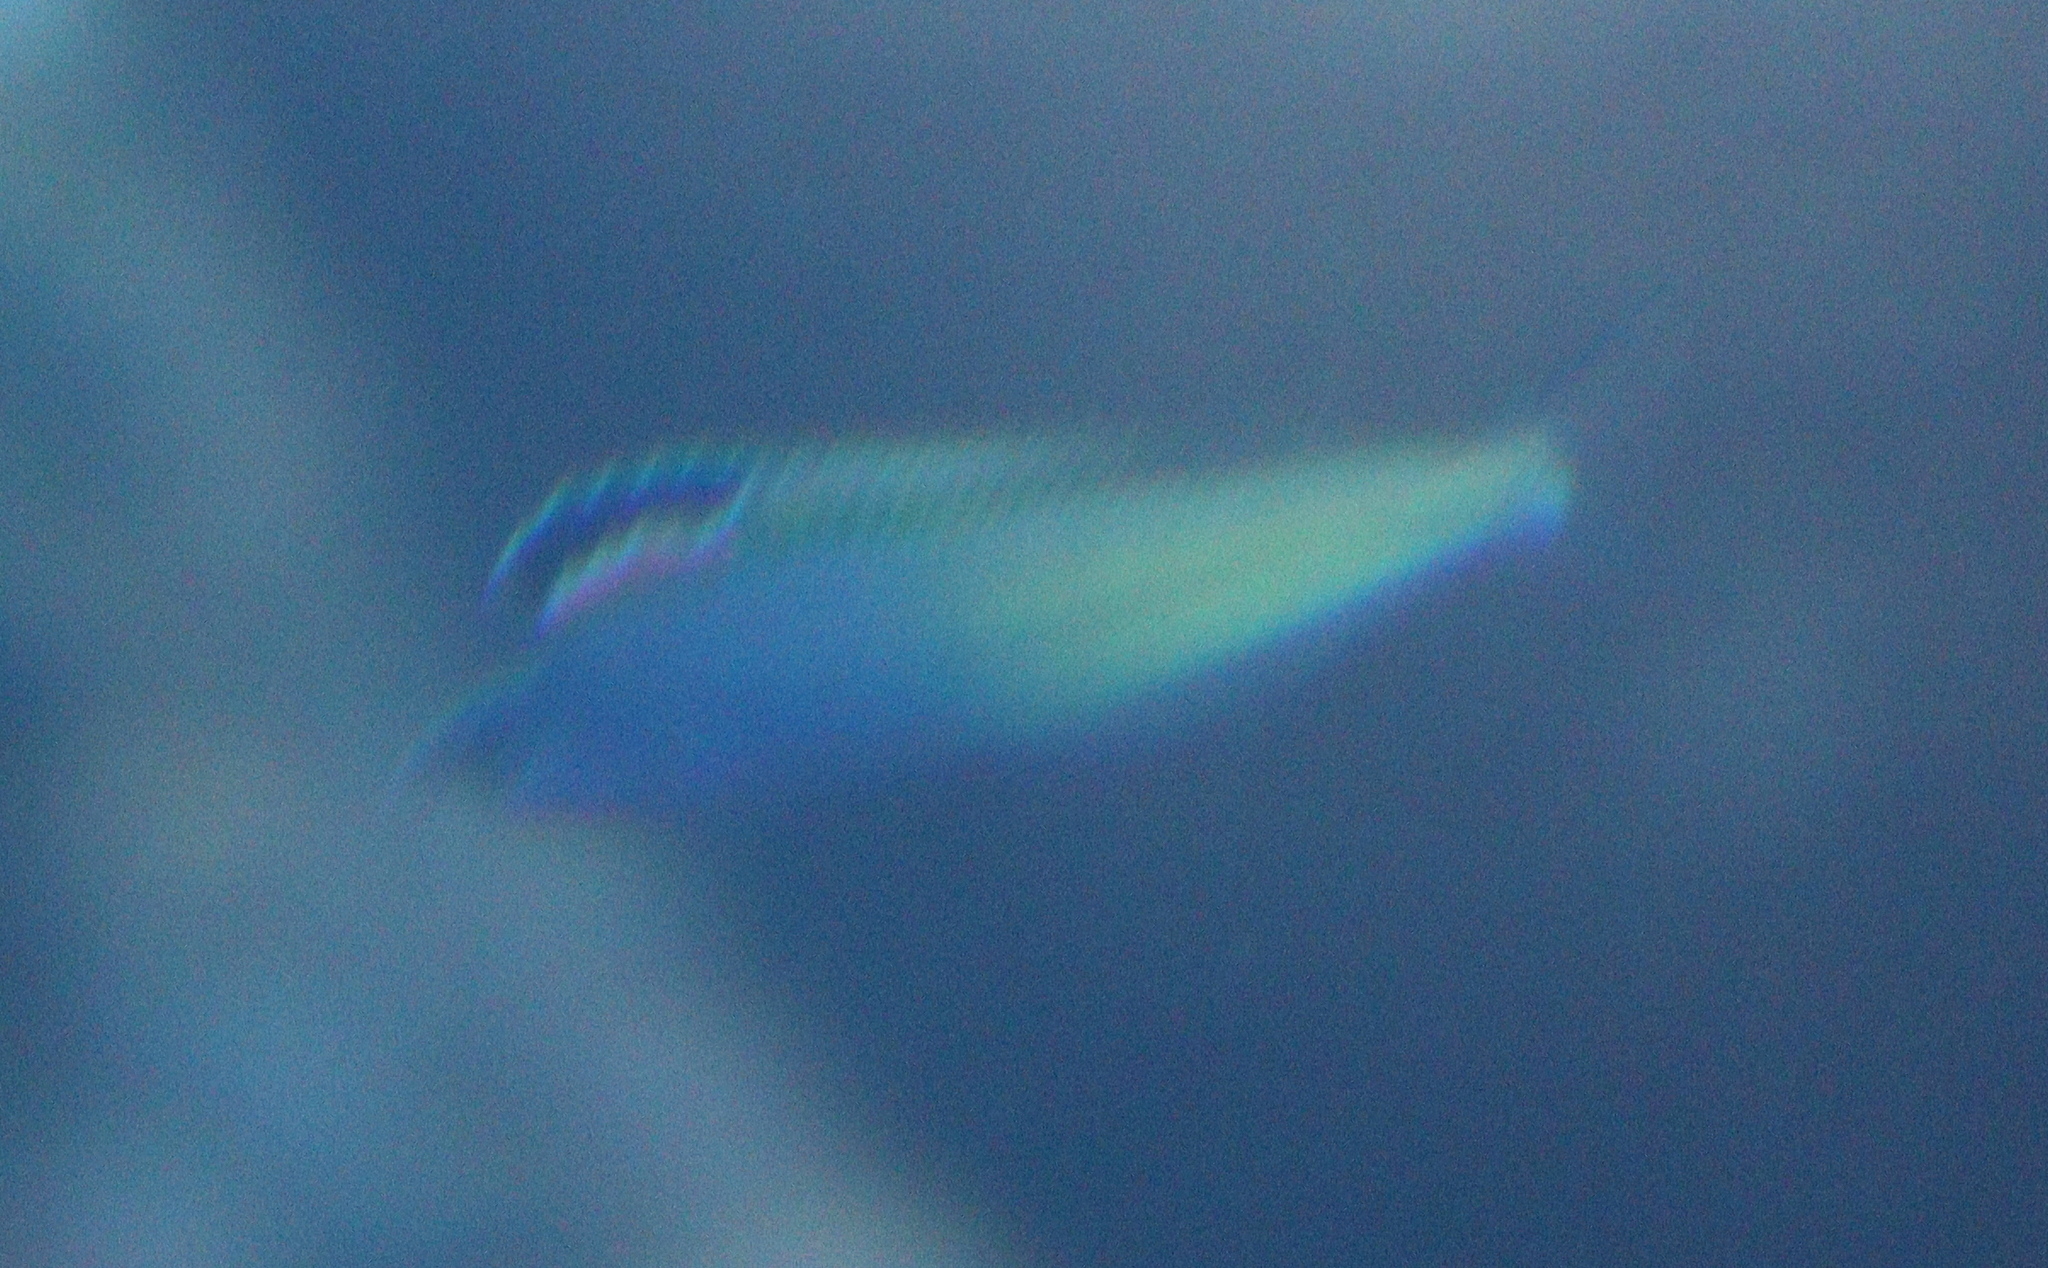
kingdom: Animalia
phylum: Chordata
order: Perciformes
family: Blenniidae
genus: Plagiotremus
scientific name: Plagiotremus townsendi
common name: Townsend's fangblenny
